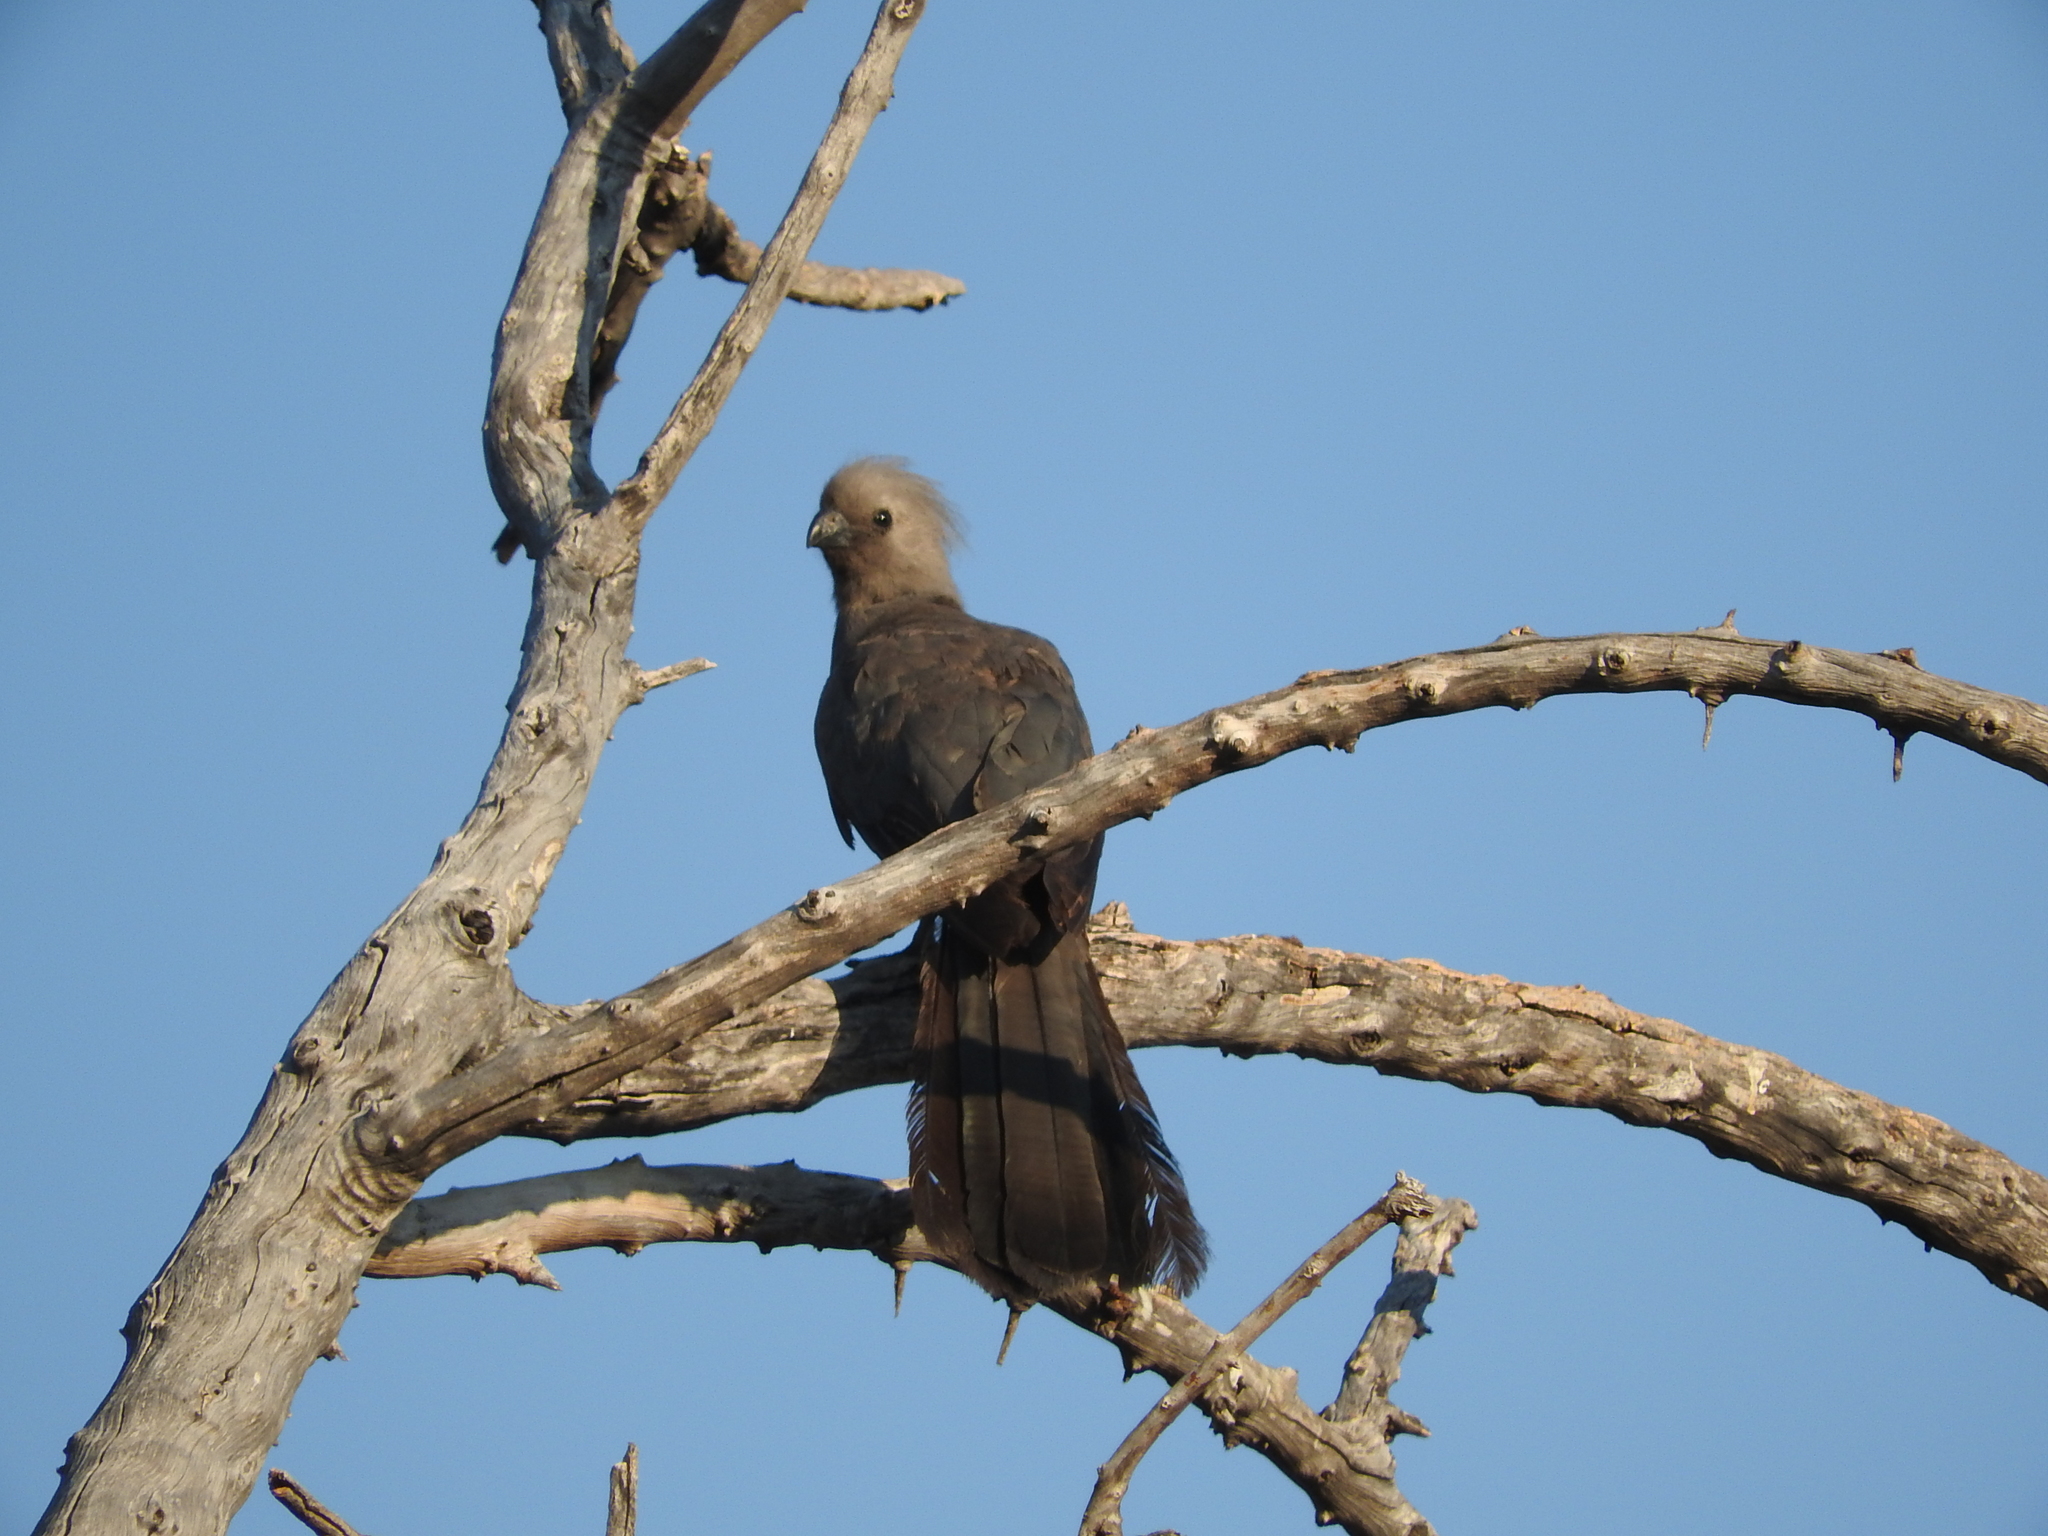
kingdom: Animalia
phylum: Chordata
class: Aves
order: Musophagiformes
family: Musophagidae
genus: Corythaixoides
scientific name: Corythaixoides concolor
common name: Grey go-away-bird
